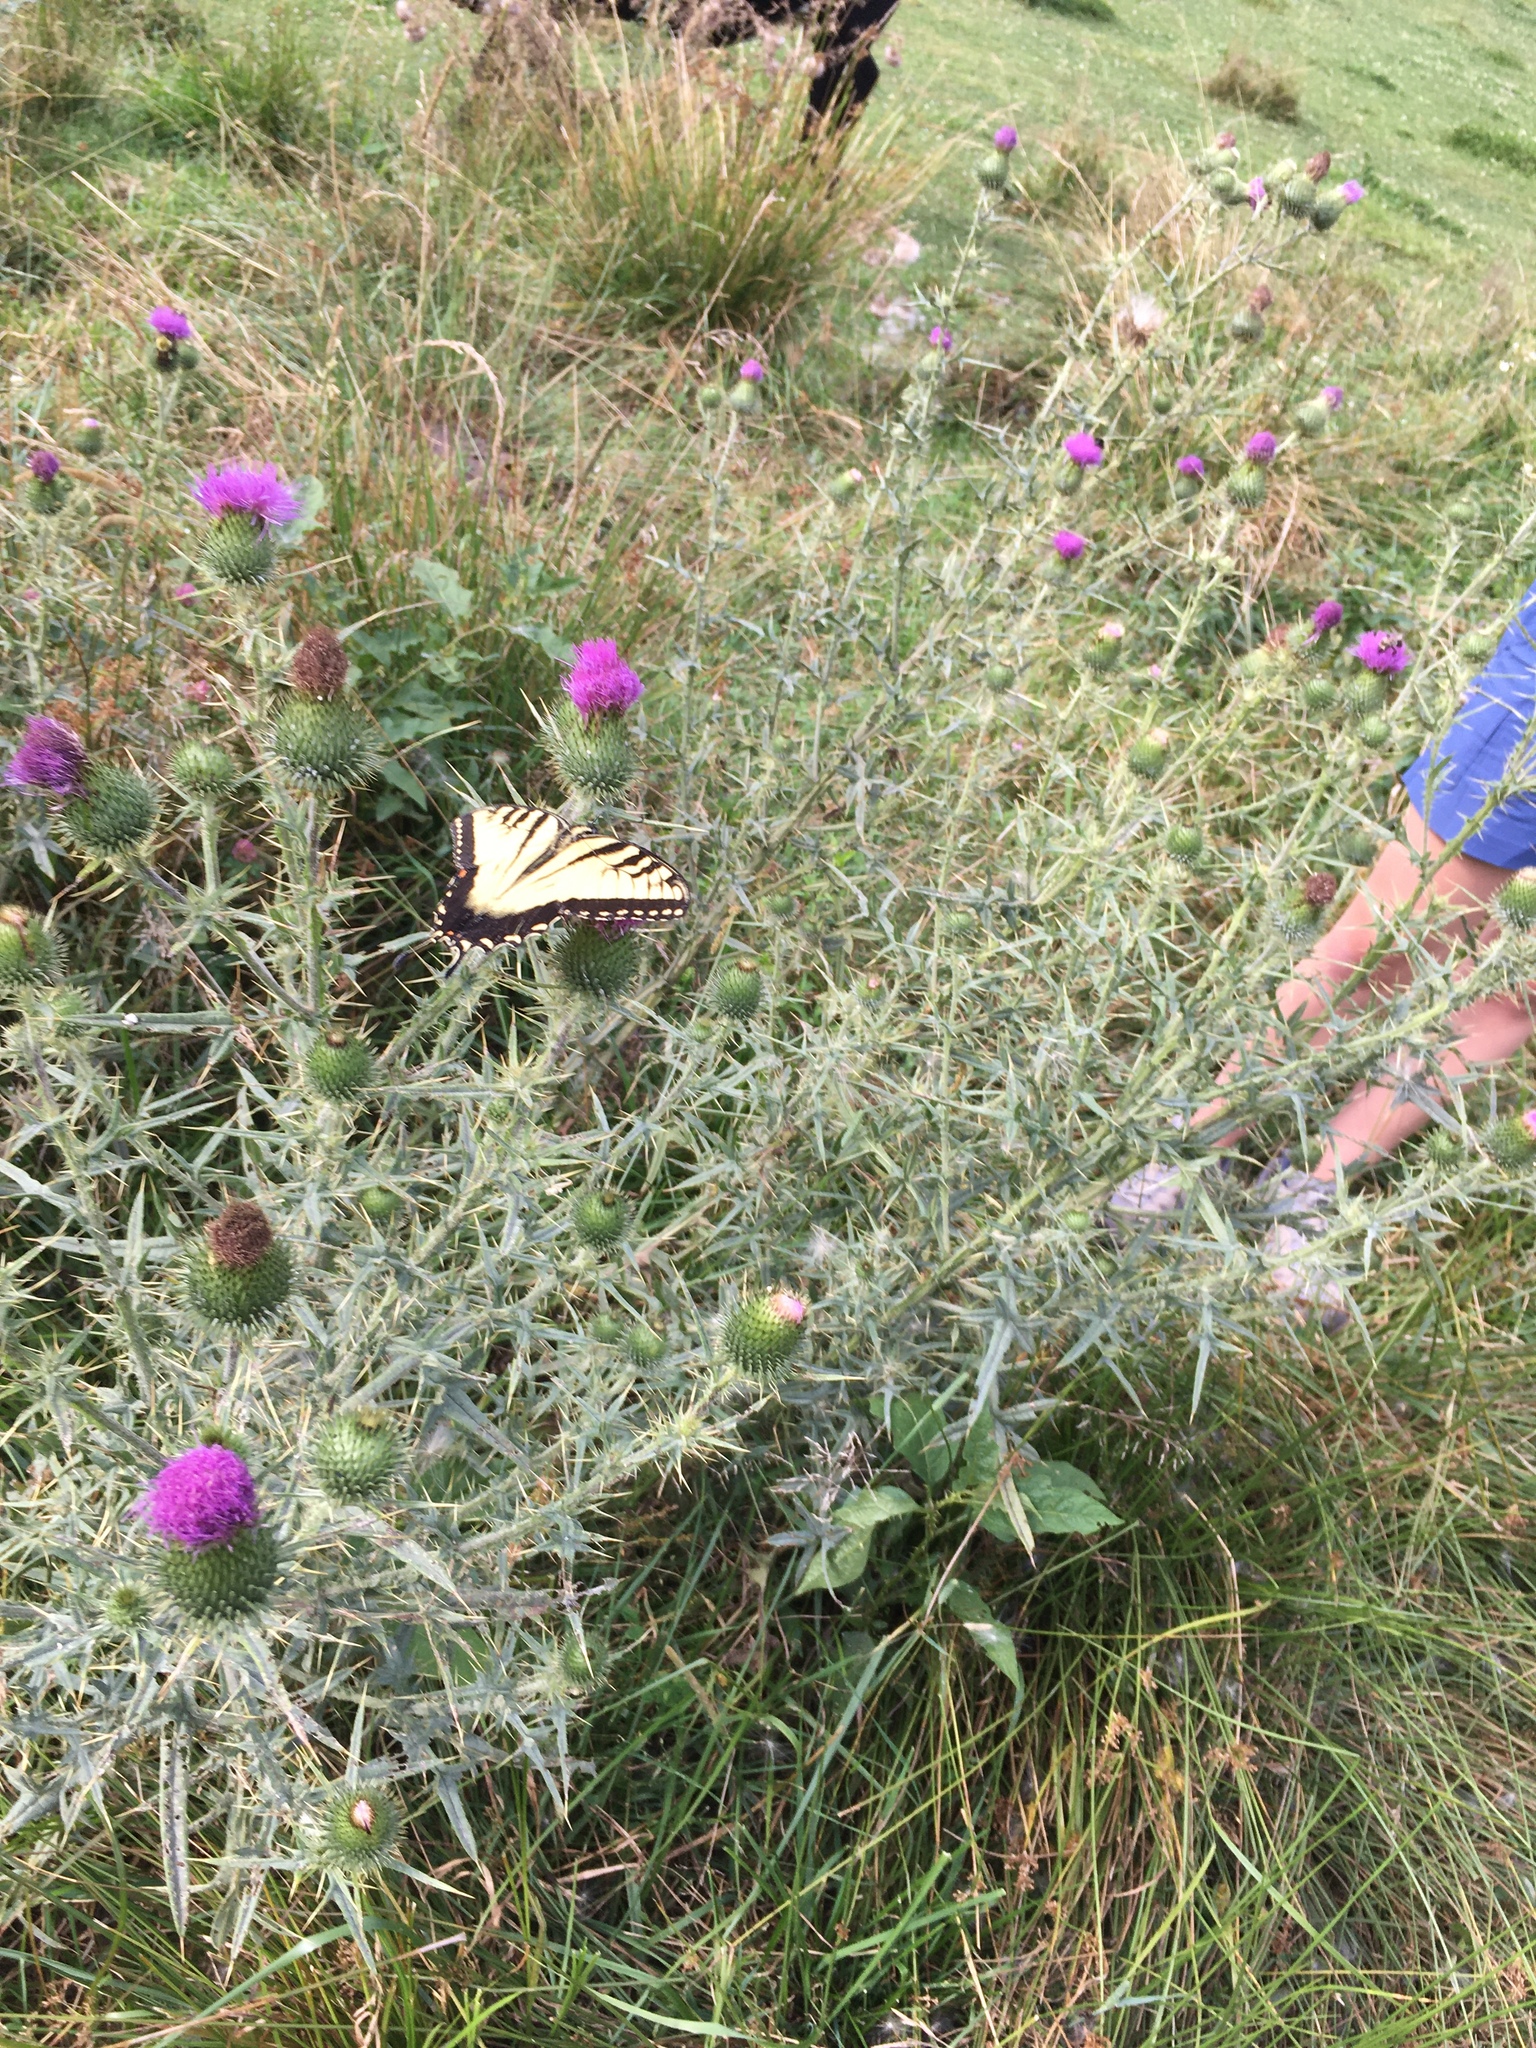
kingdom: Animalia
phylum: Arthropoda
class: Insecta
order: Lepidoptera
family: Papilionidae
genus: Papilio
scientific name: Papilio glaucus
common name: Tiger swallowtail
